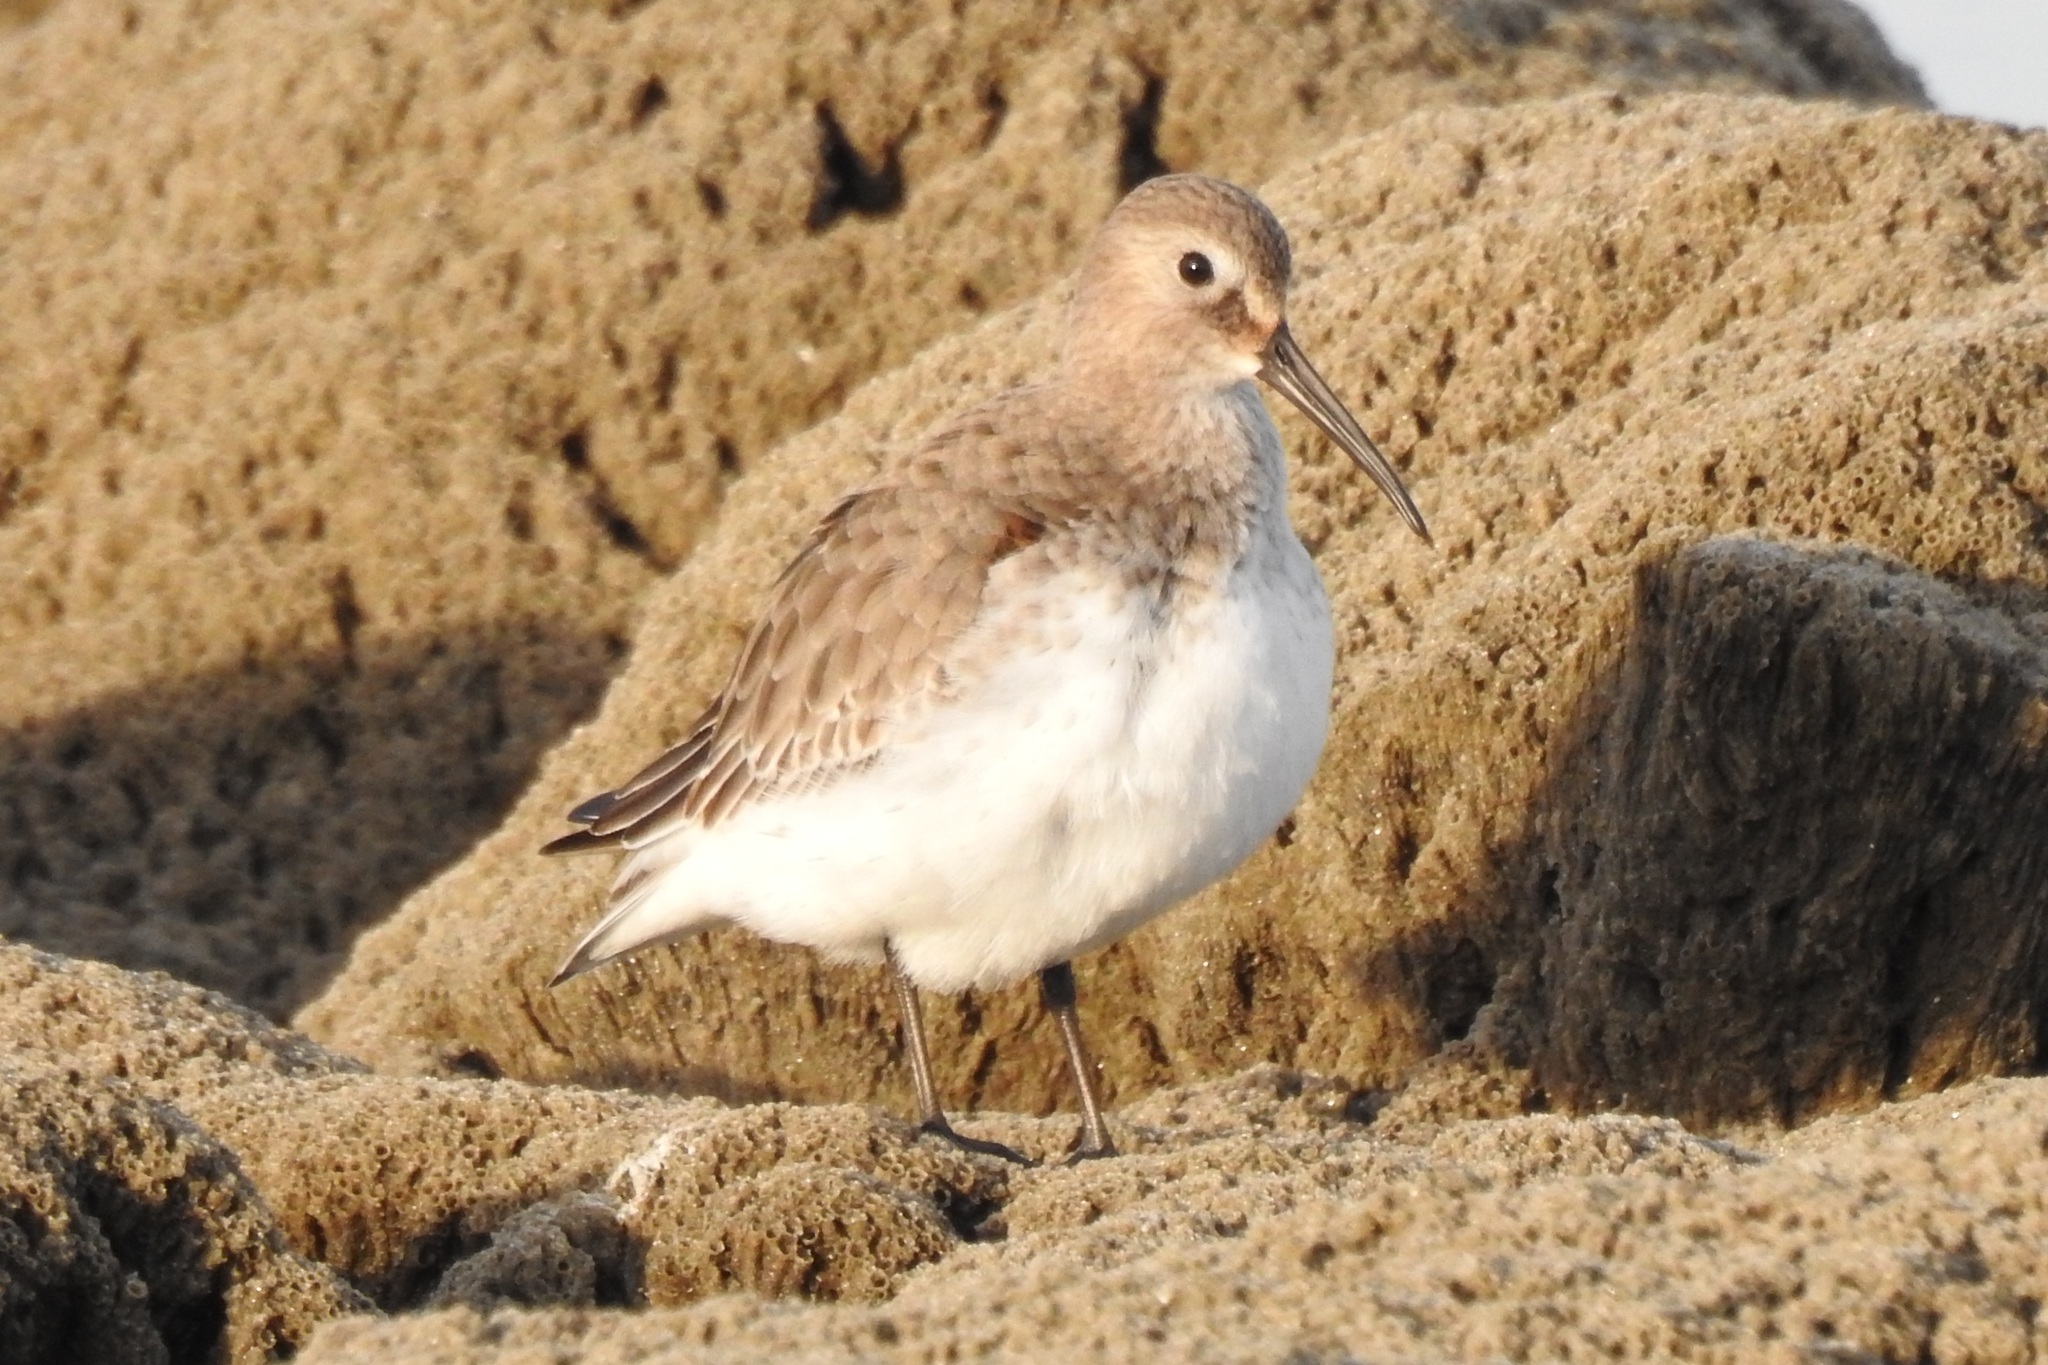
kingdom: Animalia
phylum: Chordata
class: Aves
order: Charadriiformes
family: Scolopacidae
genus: Calidris
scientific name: Calidris alpina
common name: Dunlin
